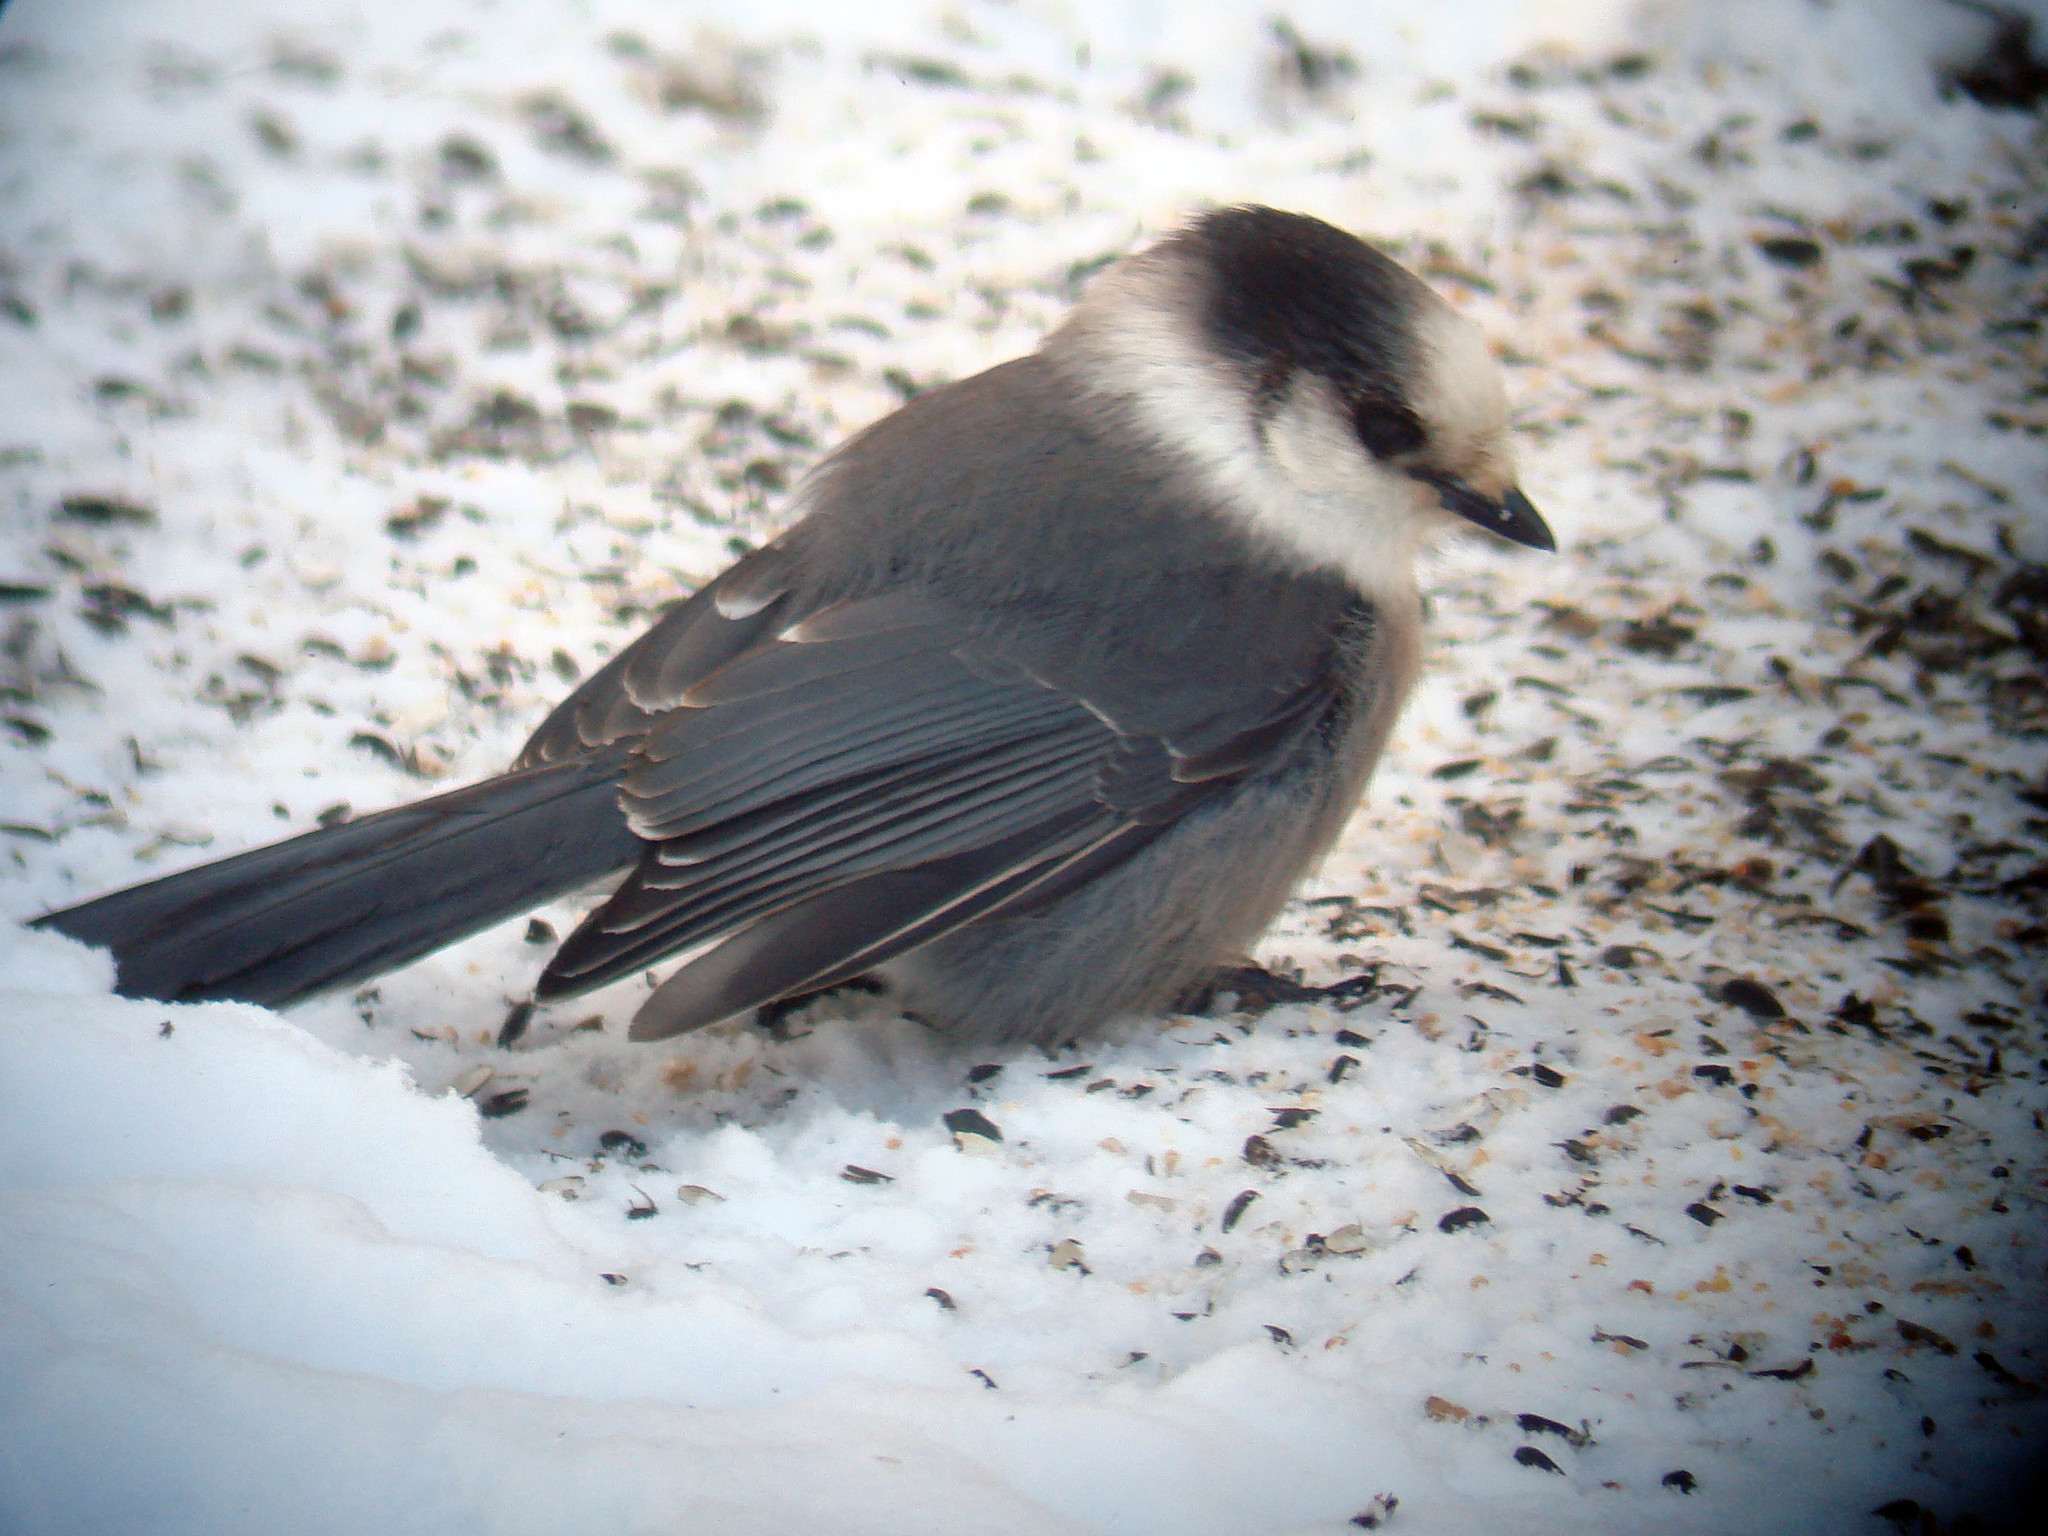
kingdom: Animalia
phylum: Chordata
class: Aves
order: Passeriformes
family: Corvidae
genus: Perisoreus
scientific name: Perisoreus canadensis
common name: Gray jay
